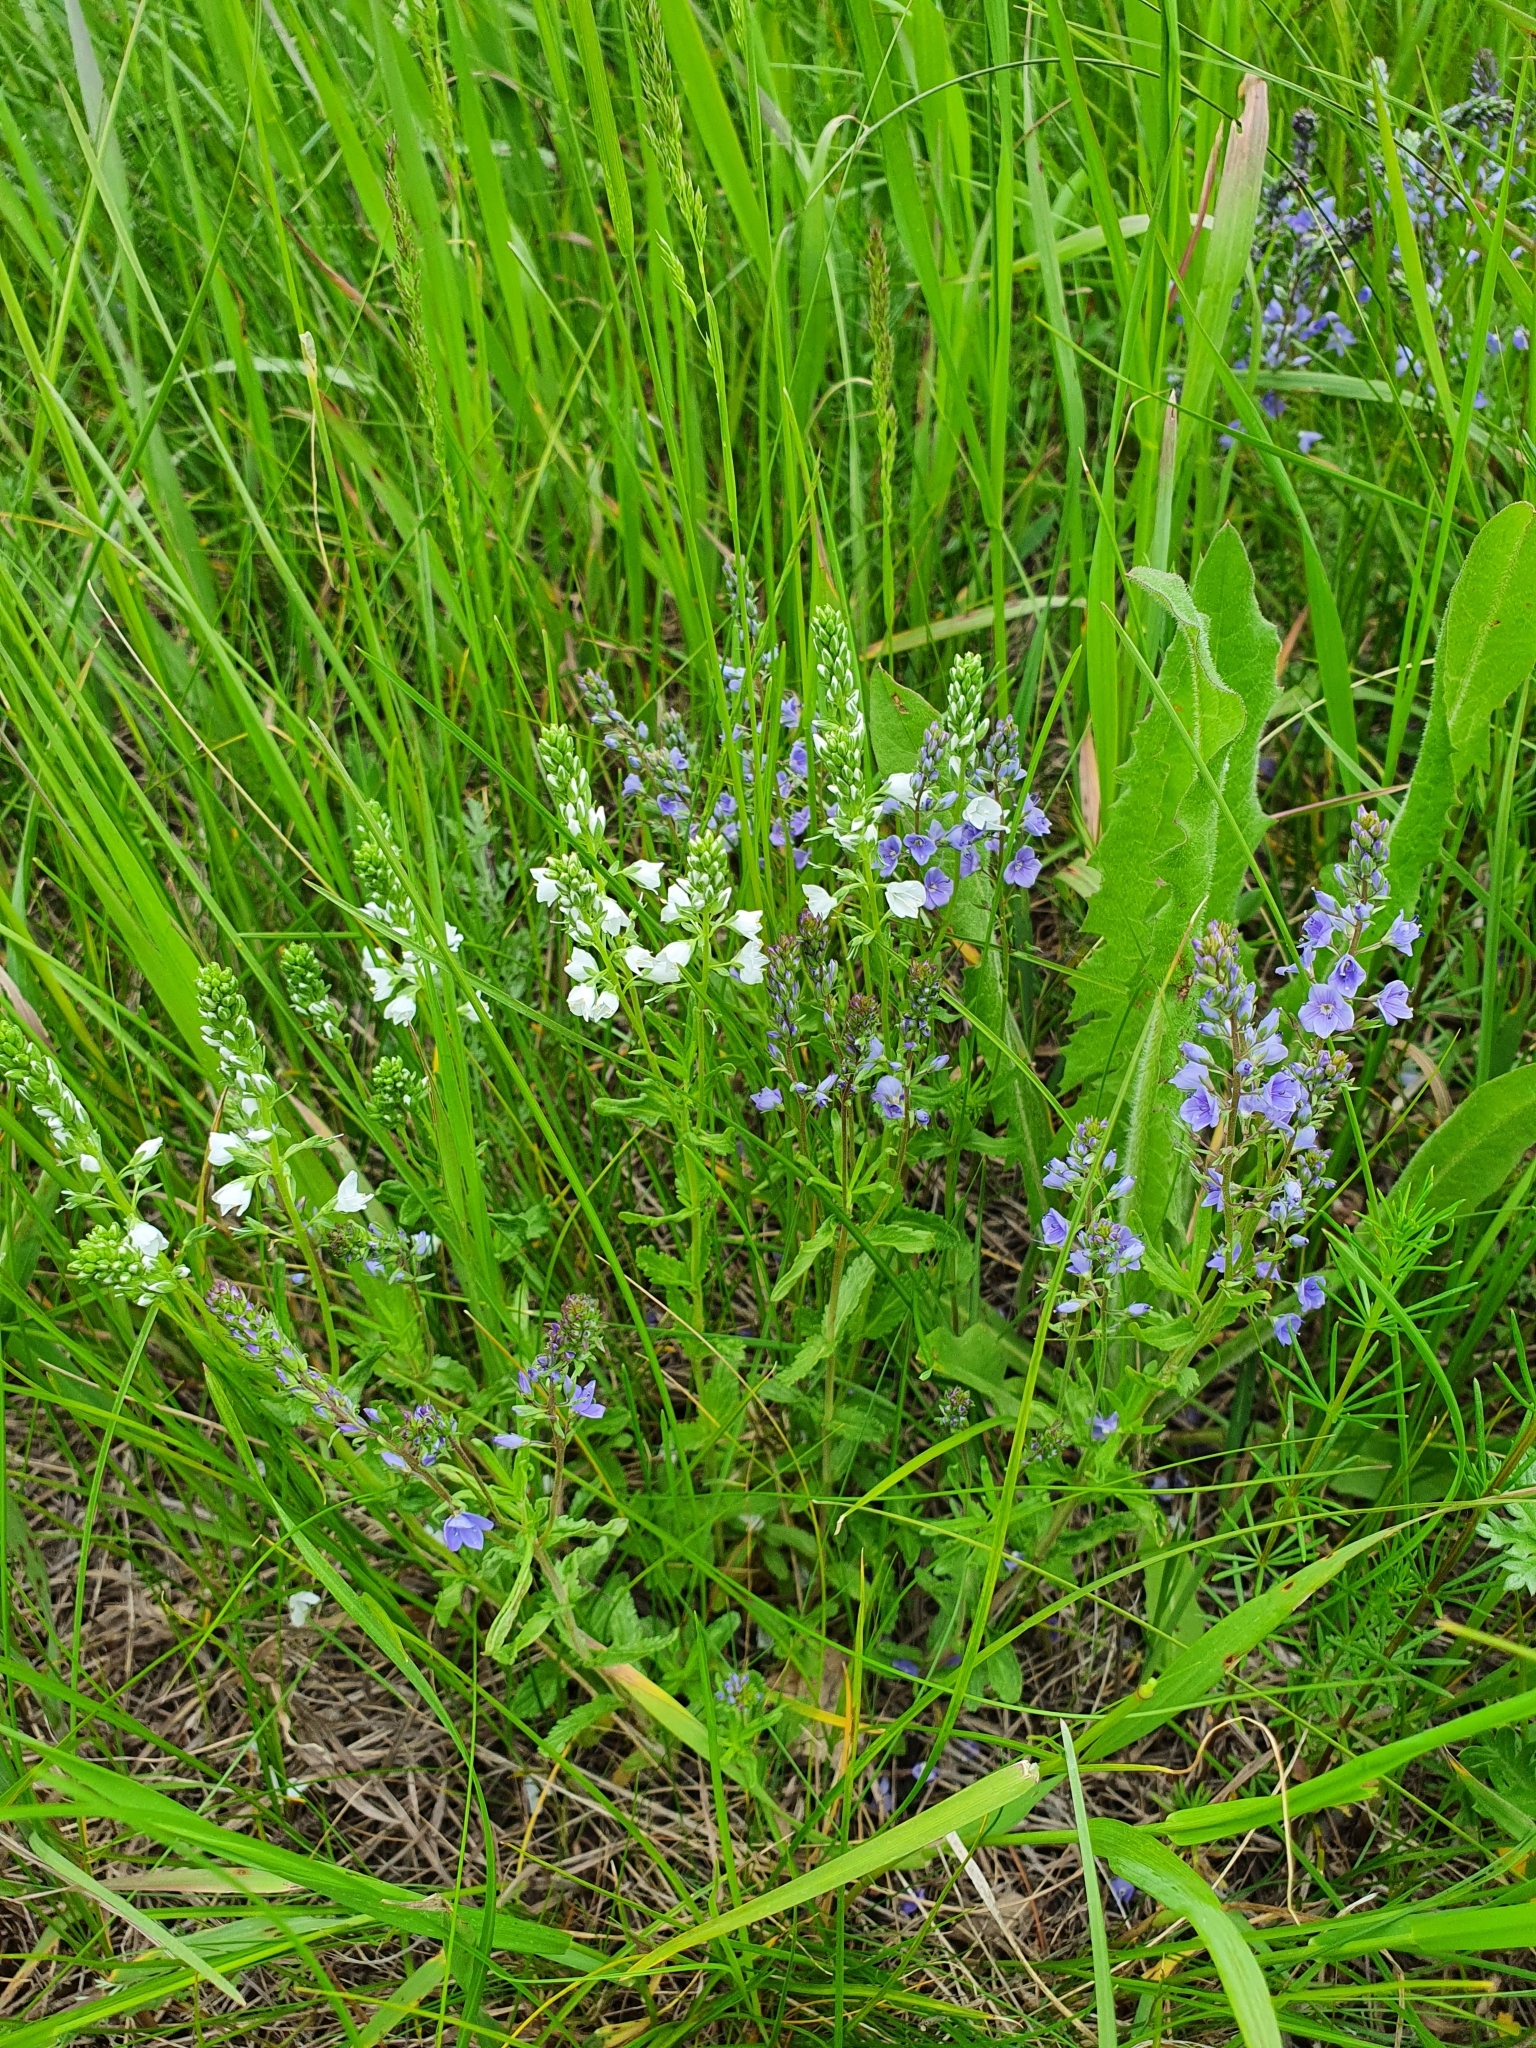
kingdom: Plantae
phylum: Tracheophyta
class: Magnoliopsida
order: Lamiales
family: Plantaginaceae
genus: Veronica
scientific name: Veronica prostrata
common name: Prostrate speedwell
